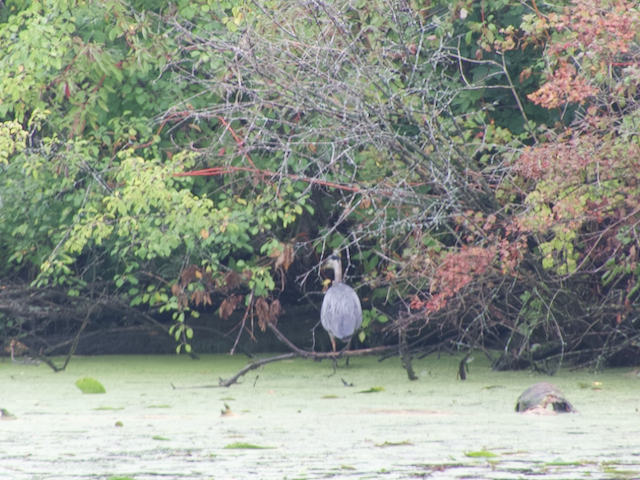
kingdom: Animalia
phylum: Chordata
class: Aves
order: Pelecaniformes
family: Ardeidae
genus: Ardea
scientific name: Ardea herodias
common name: Great blue heron
